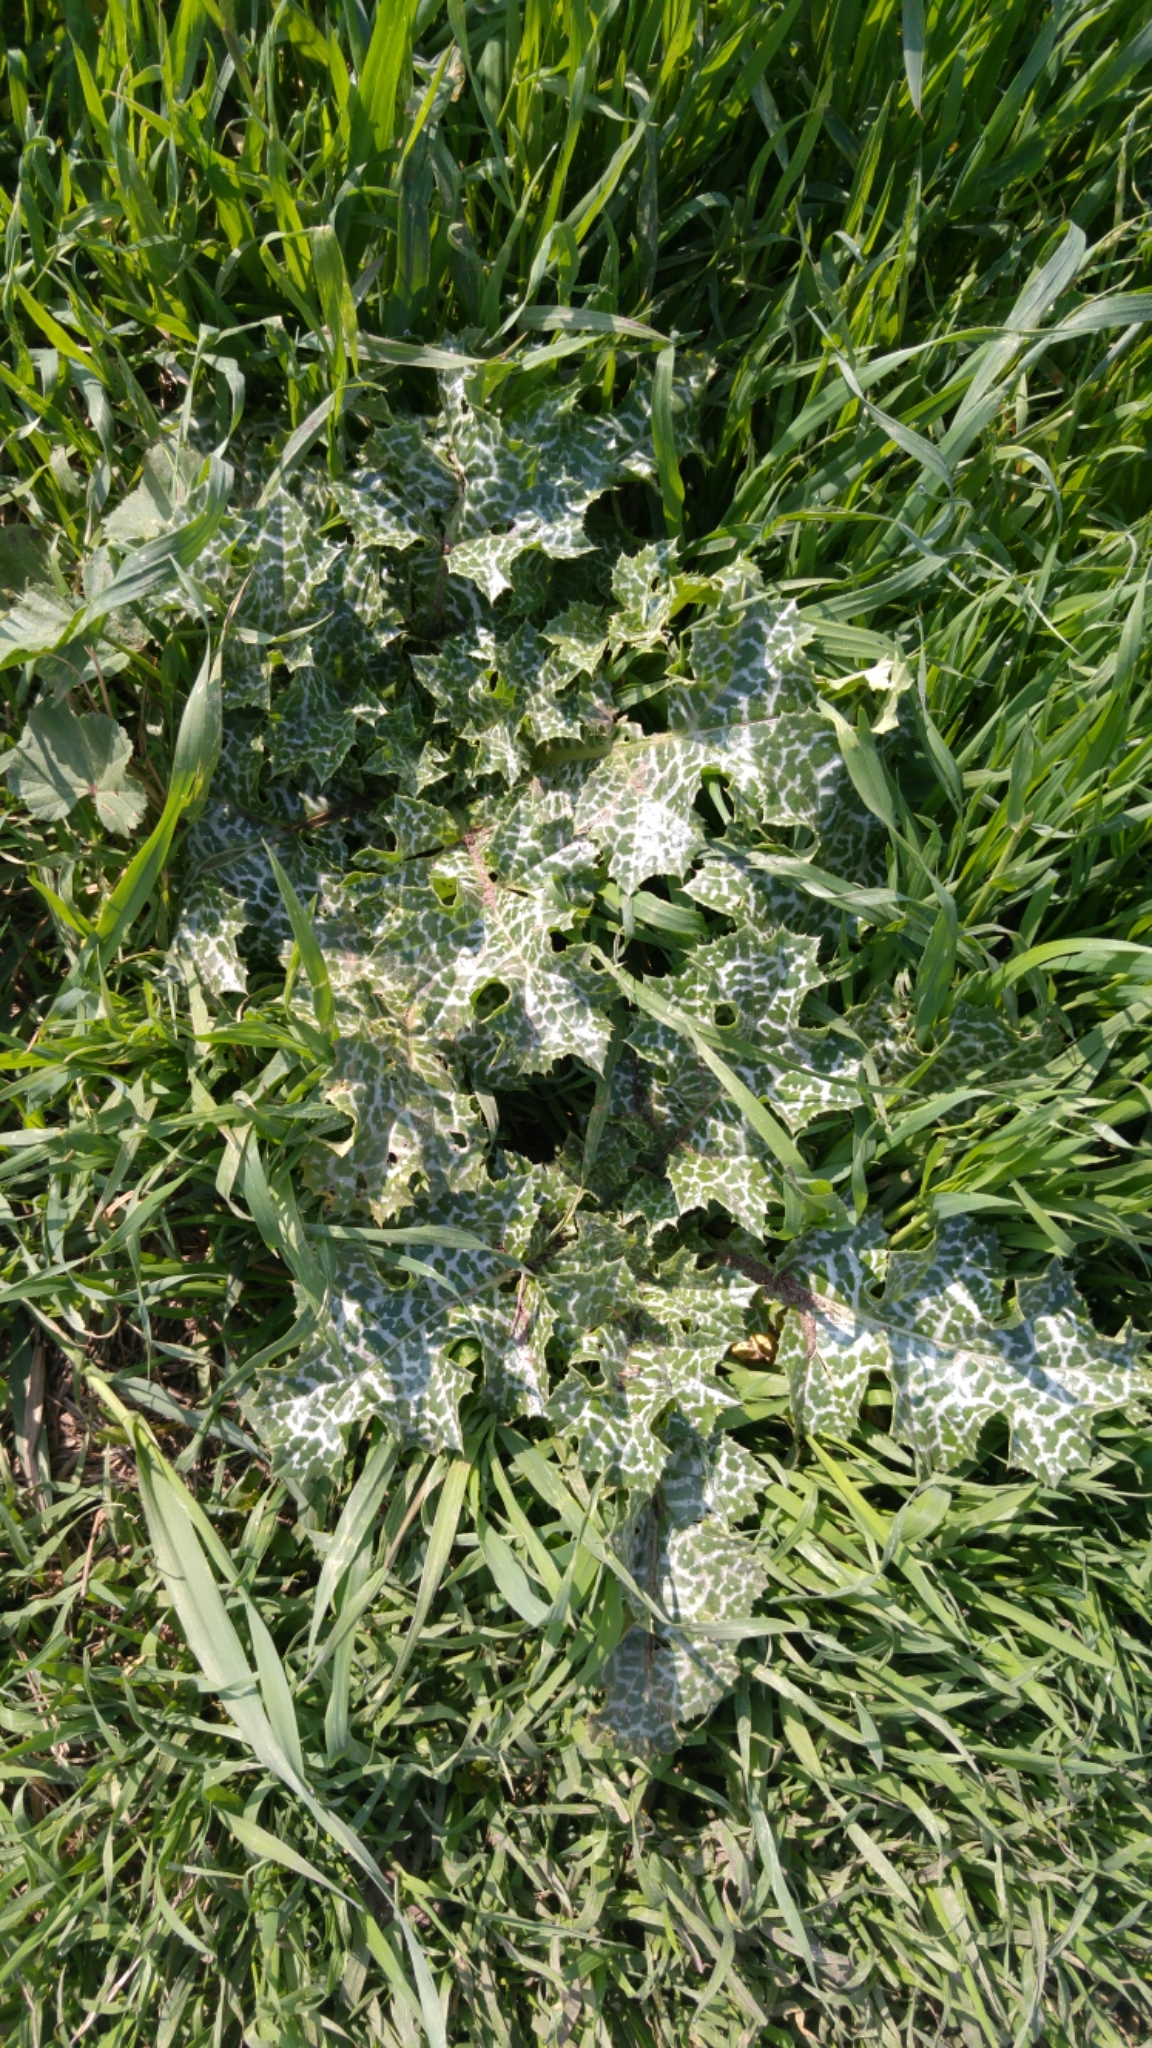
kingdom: Plantae
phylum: Tracheophyta
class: Magnoliopsida
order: Asterales
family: Asteraceae
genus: Silybum
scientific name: Silybum marianum
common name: Milk thistle
